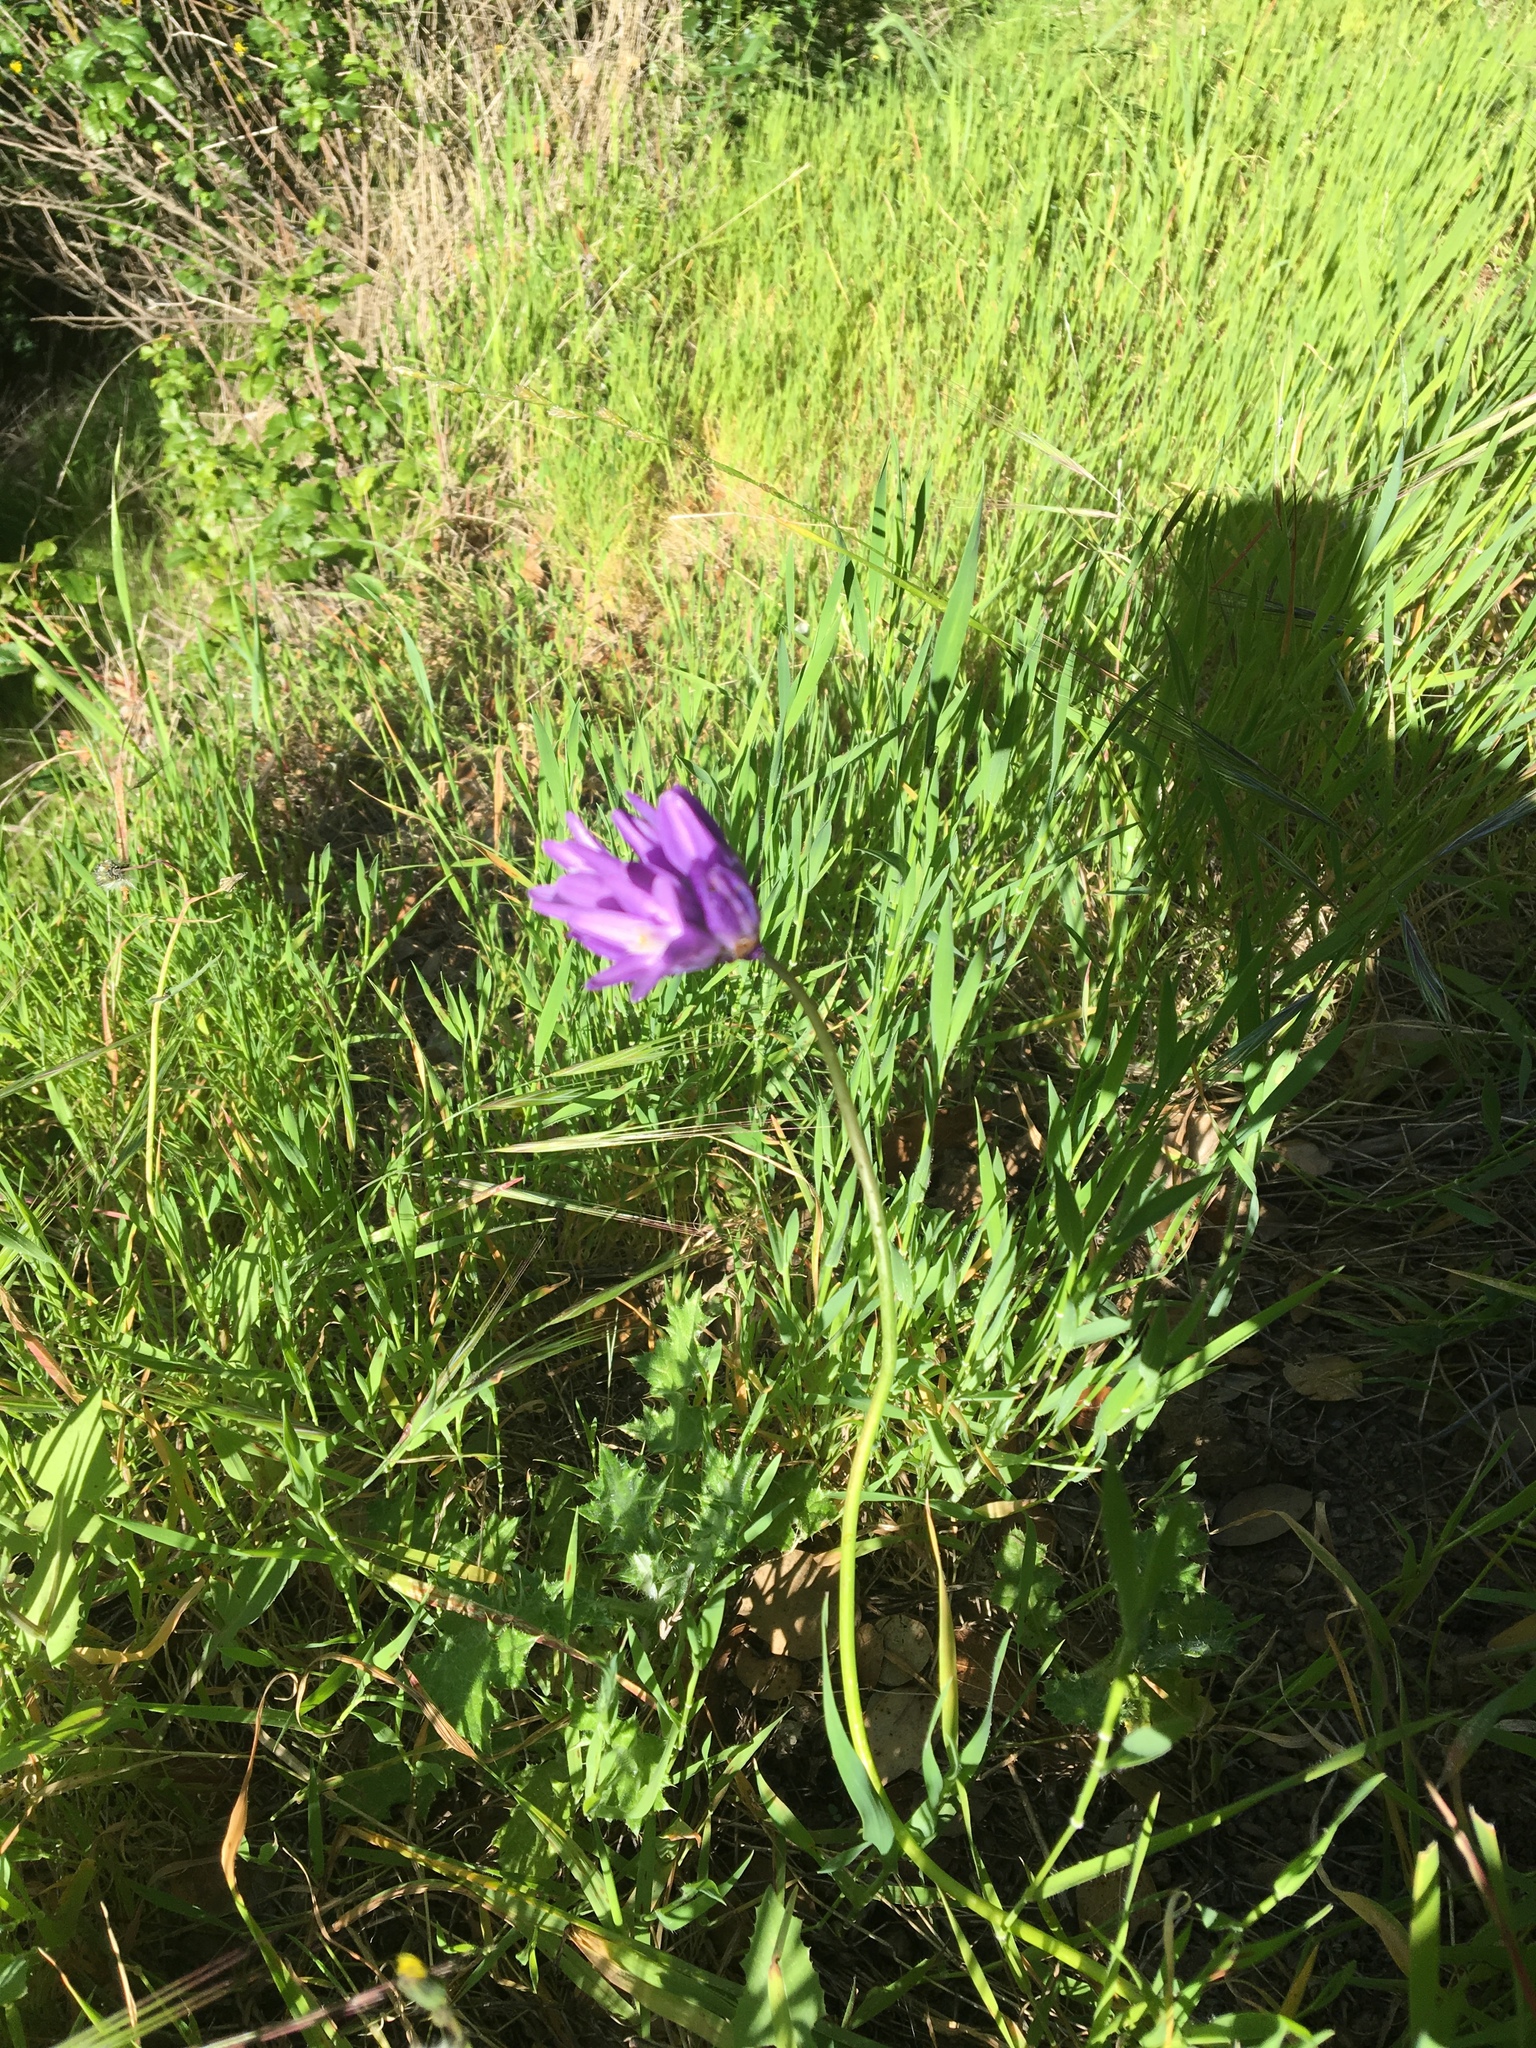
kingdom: Plantae
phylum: Tracheophyta
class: Liliopsida
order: Asparagales
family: Asparagaceae
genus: Dipterostemon
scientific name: Dipterostemon capitatus
